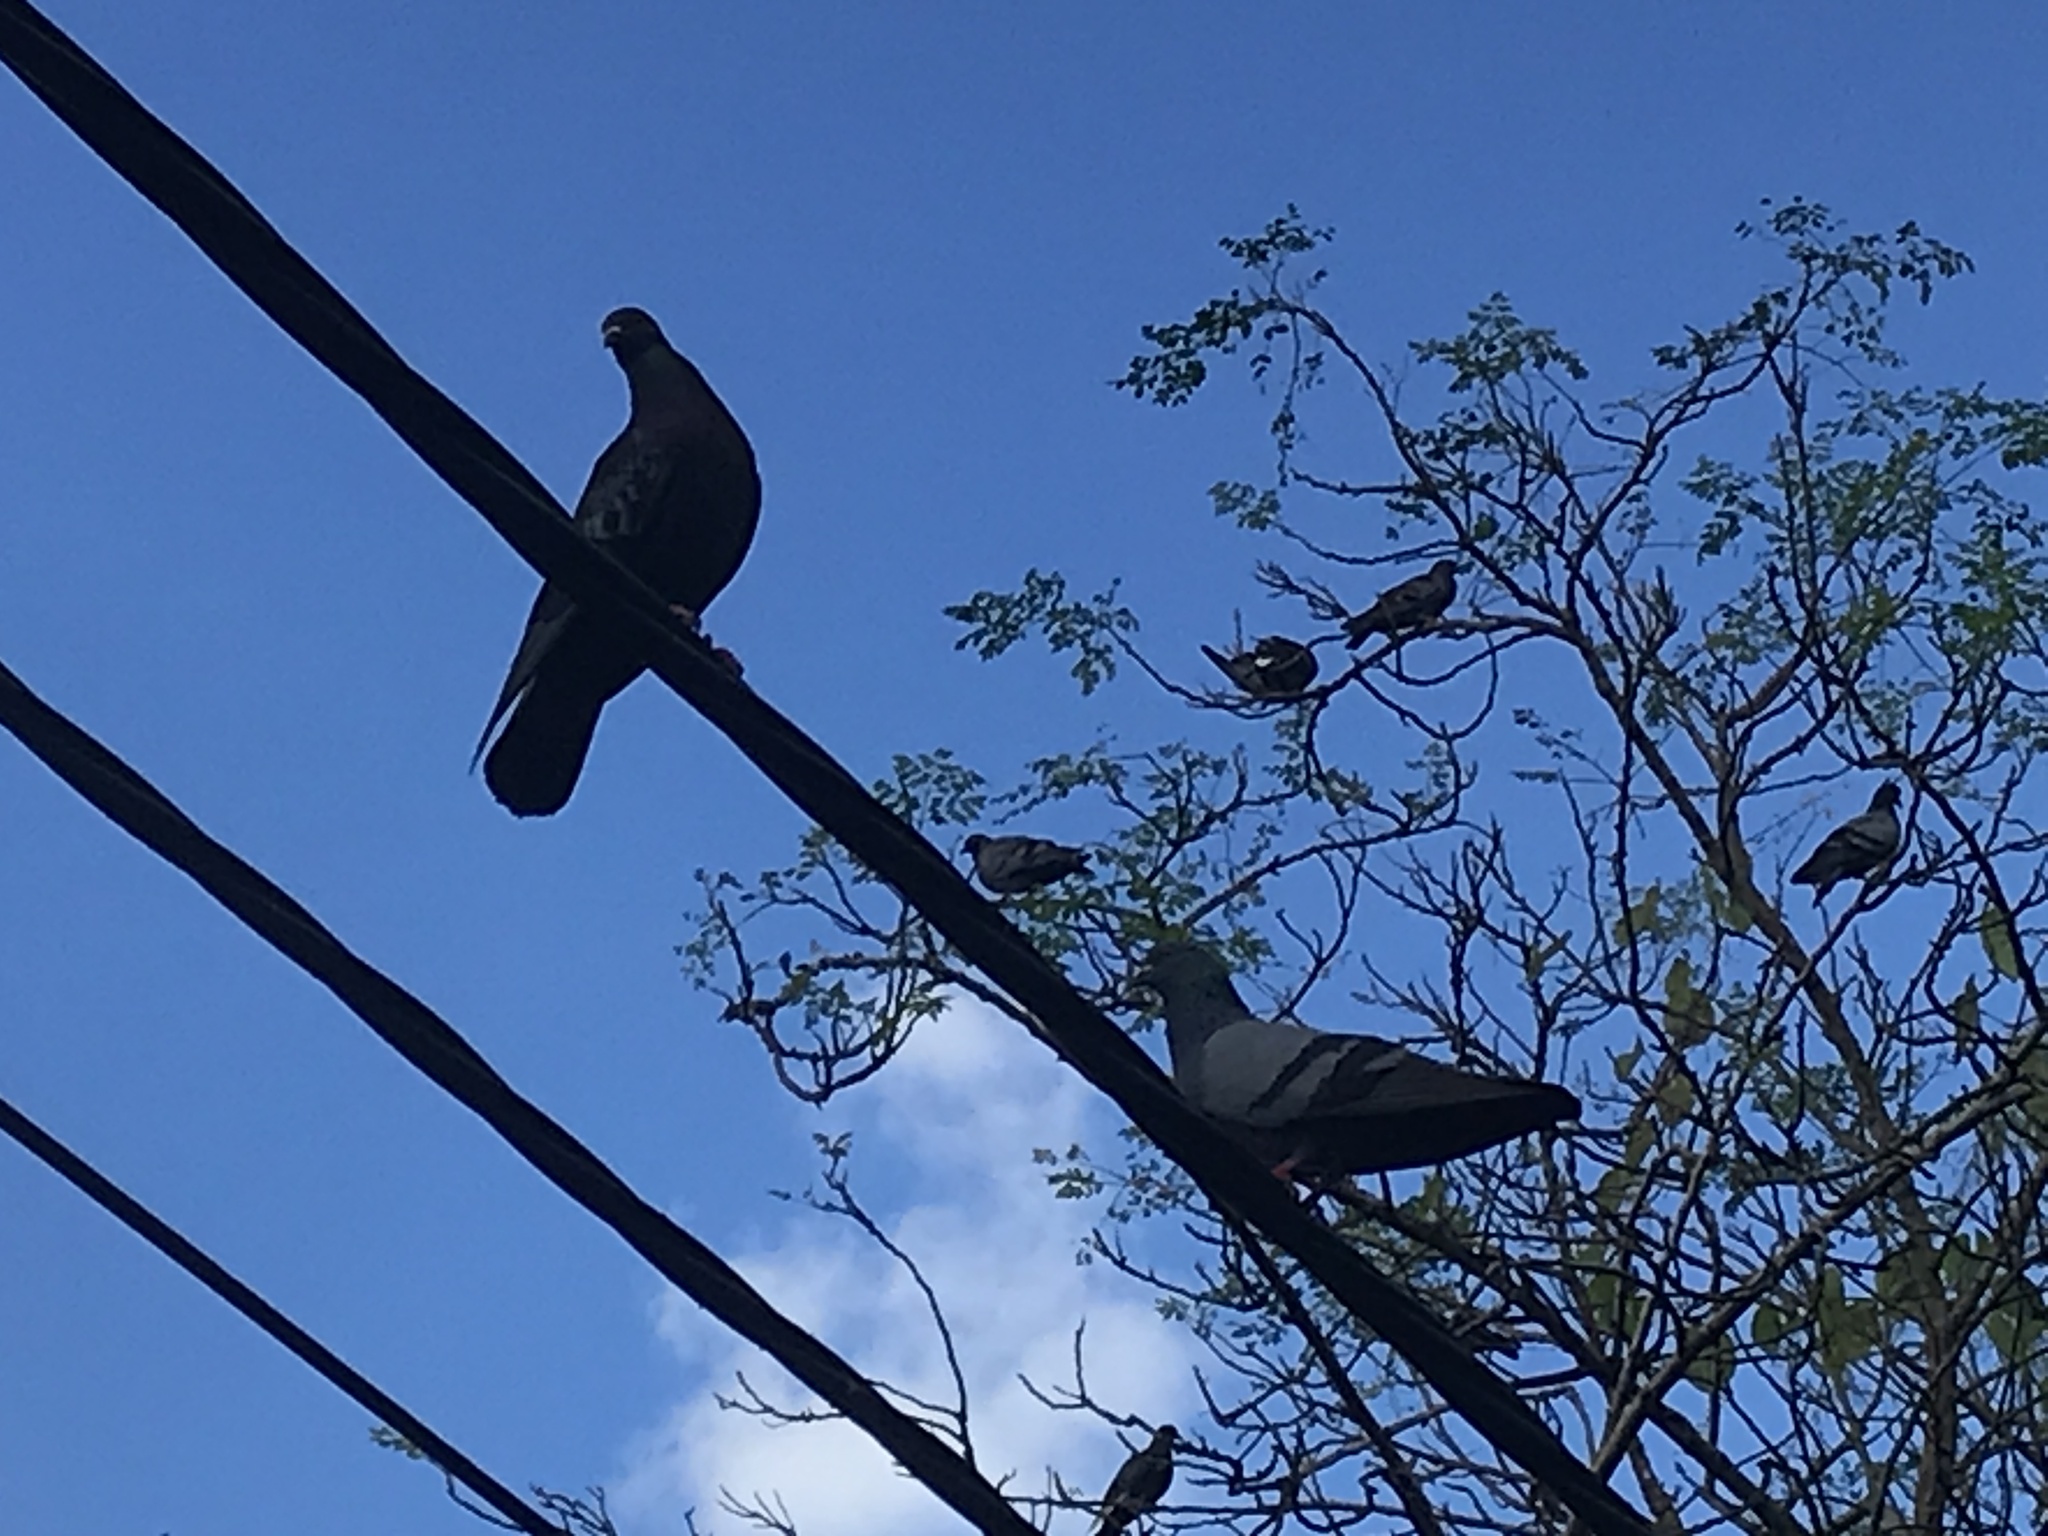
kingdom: Animalia
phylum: Chordata
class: Aves
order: Columbiformes
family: Columbidae
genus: Columba
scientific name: Columba livia
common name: Rock pigeon
